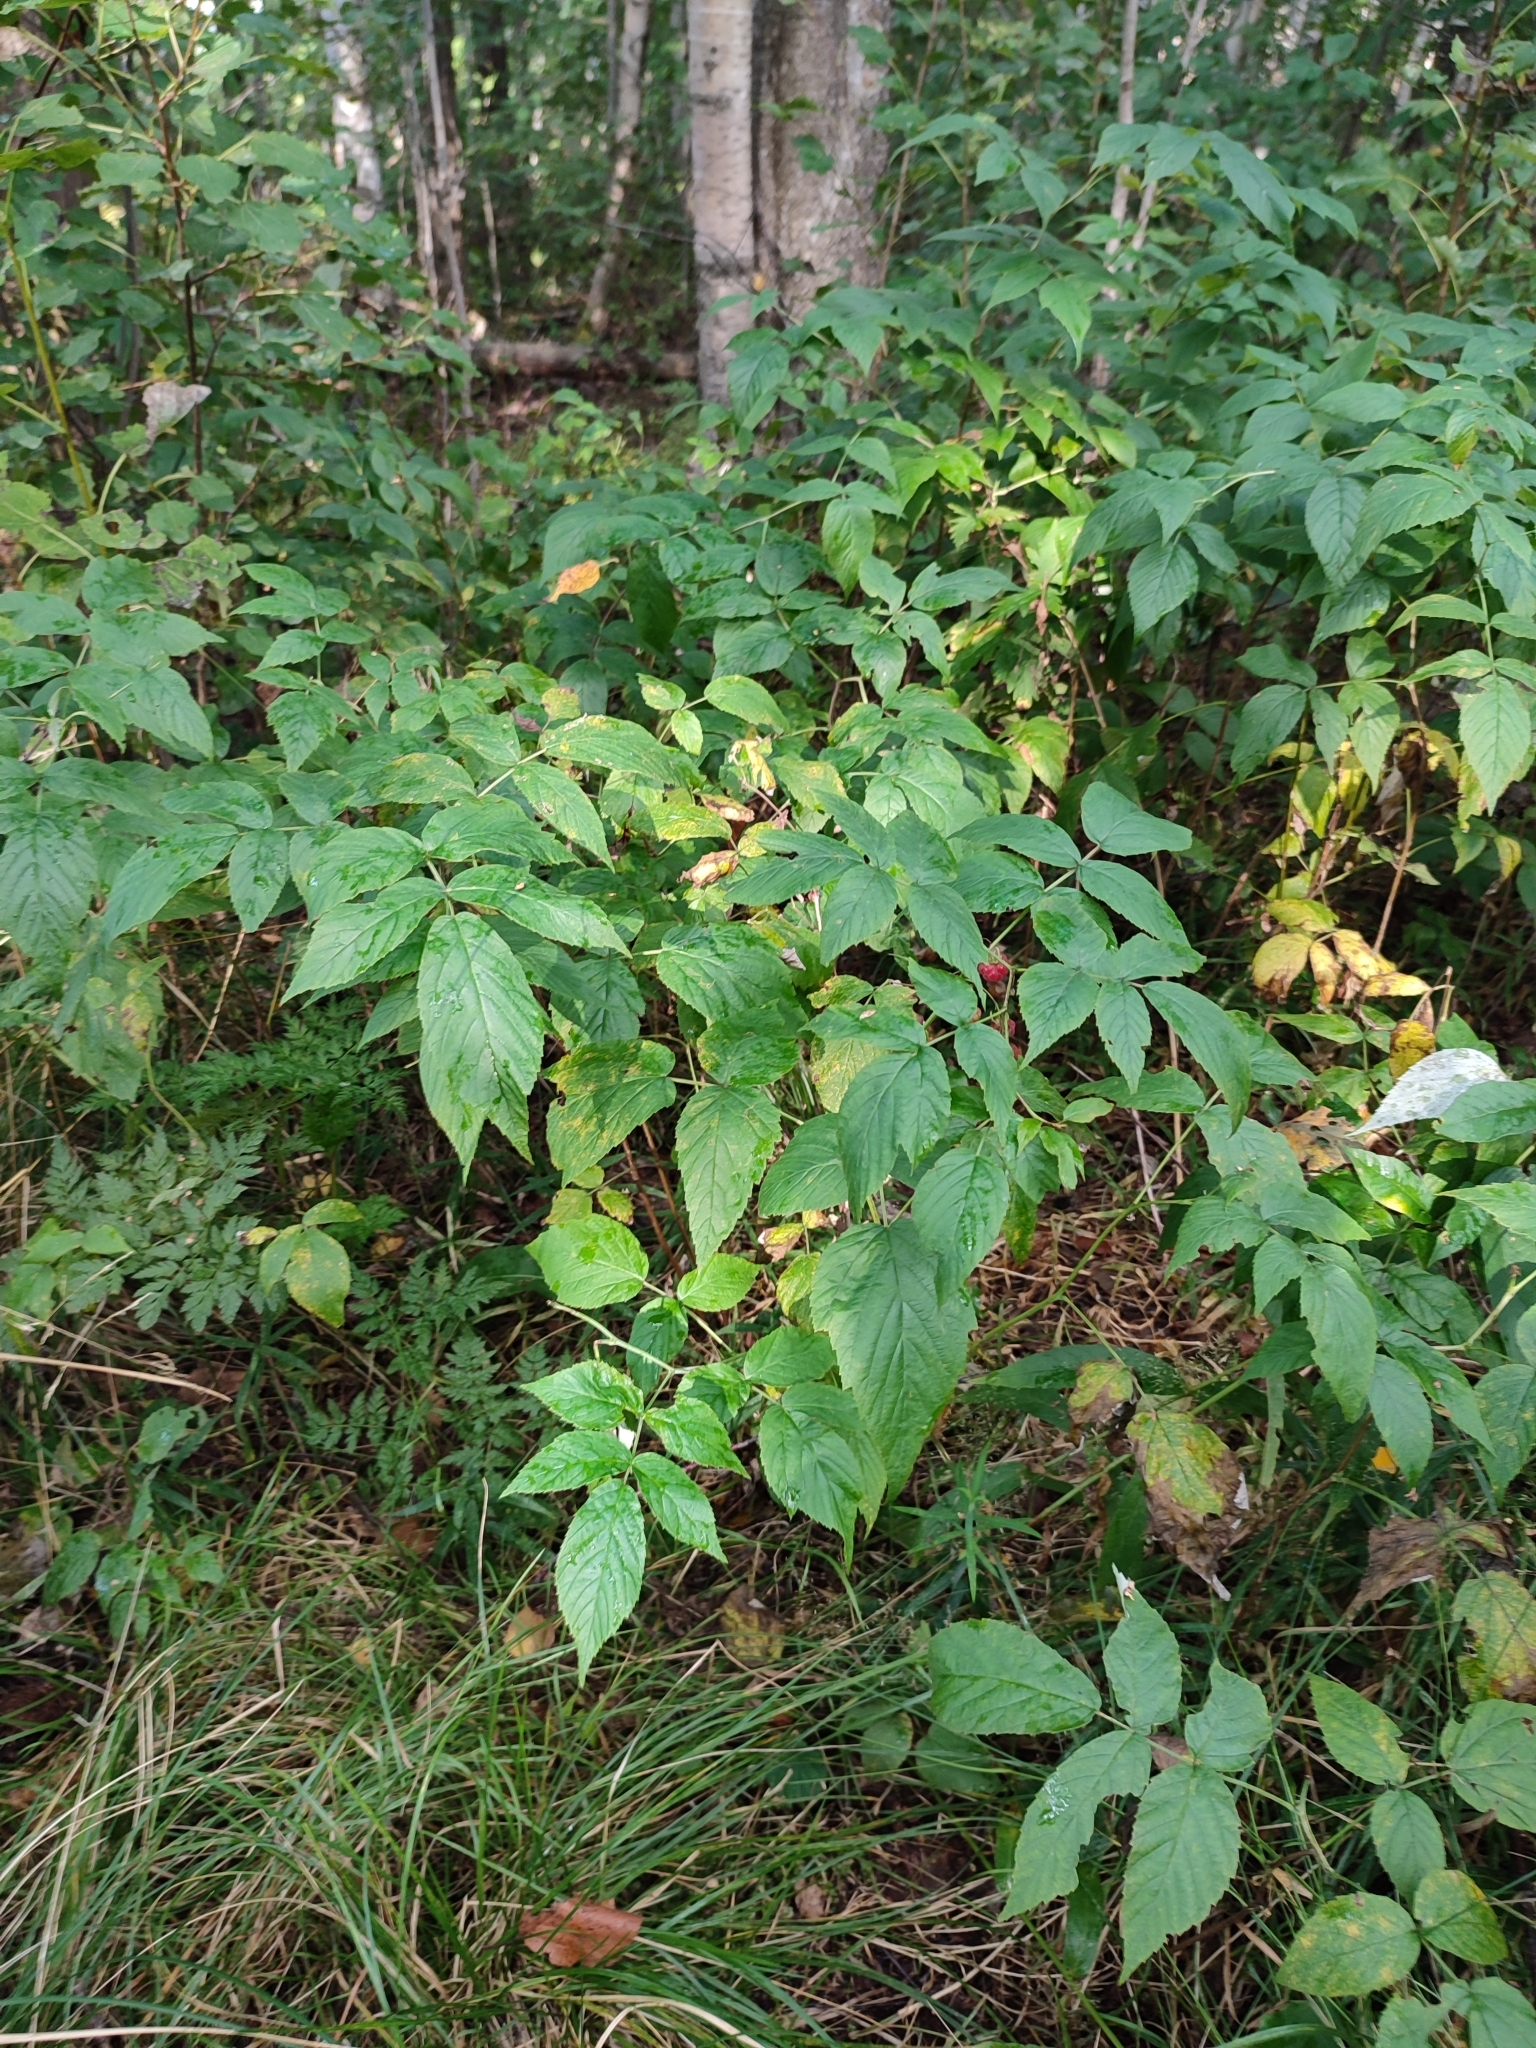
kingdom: Plantae
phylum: Tracheophyta
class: Magnoliopsida
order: Rosales
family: Rosaceae
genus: Rubus
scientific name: Rubus idaeus
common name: Raspberry
